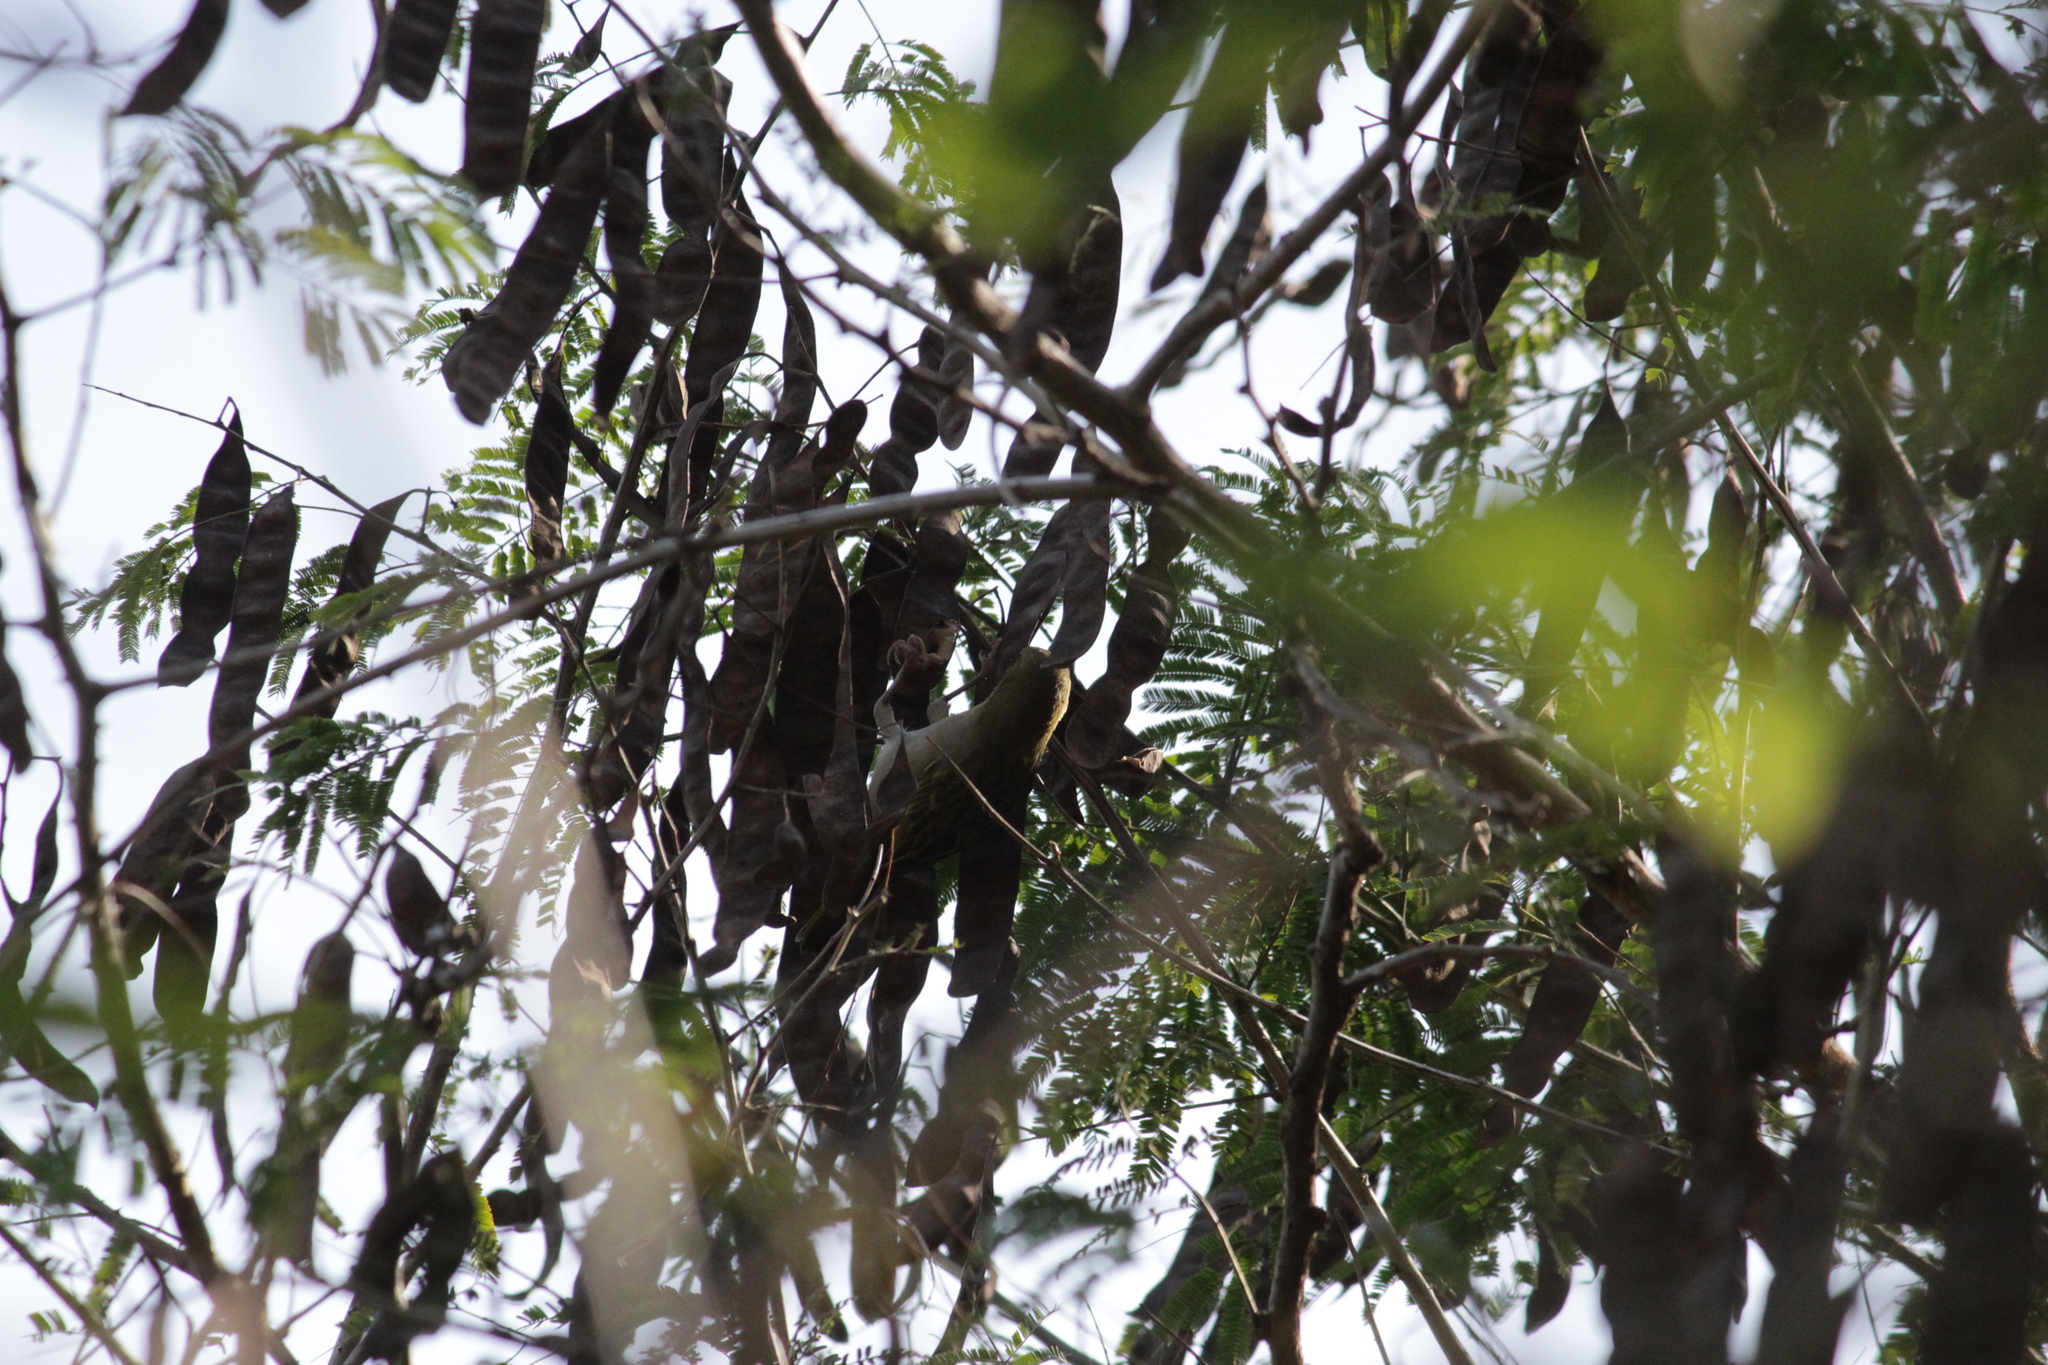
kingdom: Animalia
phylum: Chordata
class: Aves
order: Passeriformes
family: Ploceidae
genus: Ploceus
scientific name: Ploceus cucullatus
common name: Village weaver
